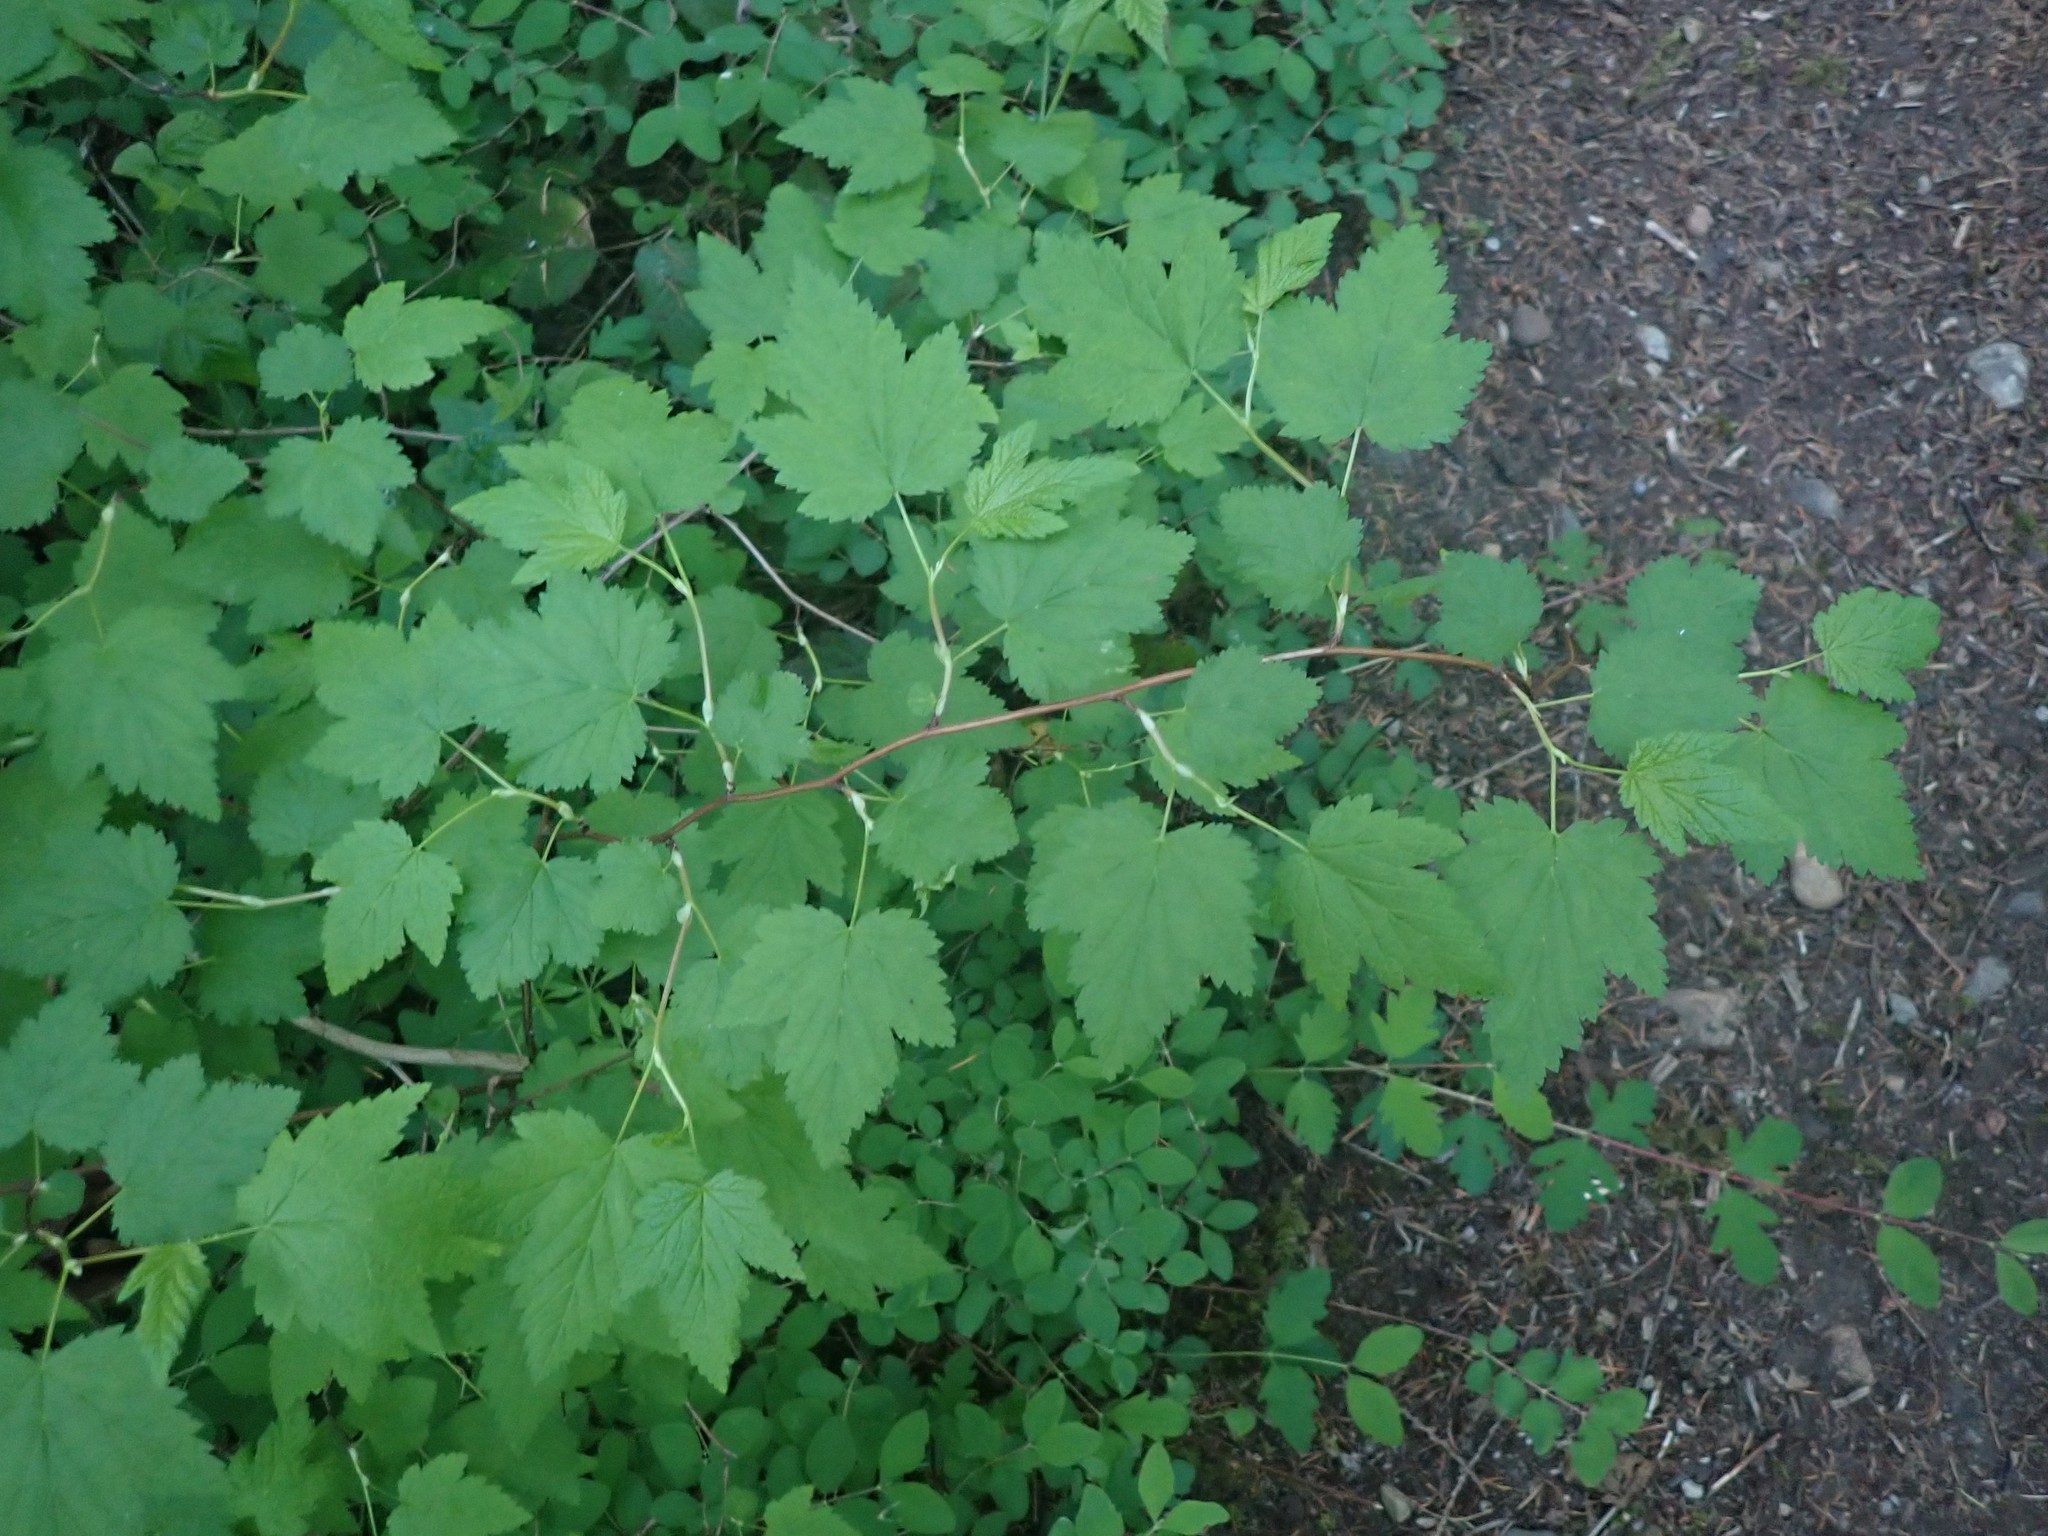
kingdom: Plantae
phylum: Tracheophyta
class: Magnoliopsida
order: Rosales
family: Rosaceae
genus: Physocarpus
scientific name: Physocarpus capitatus
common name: Pacific ninebark
